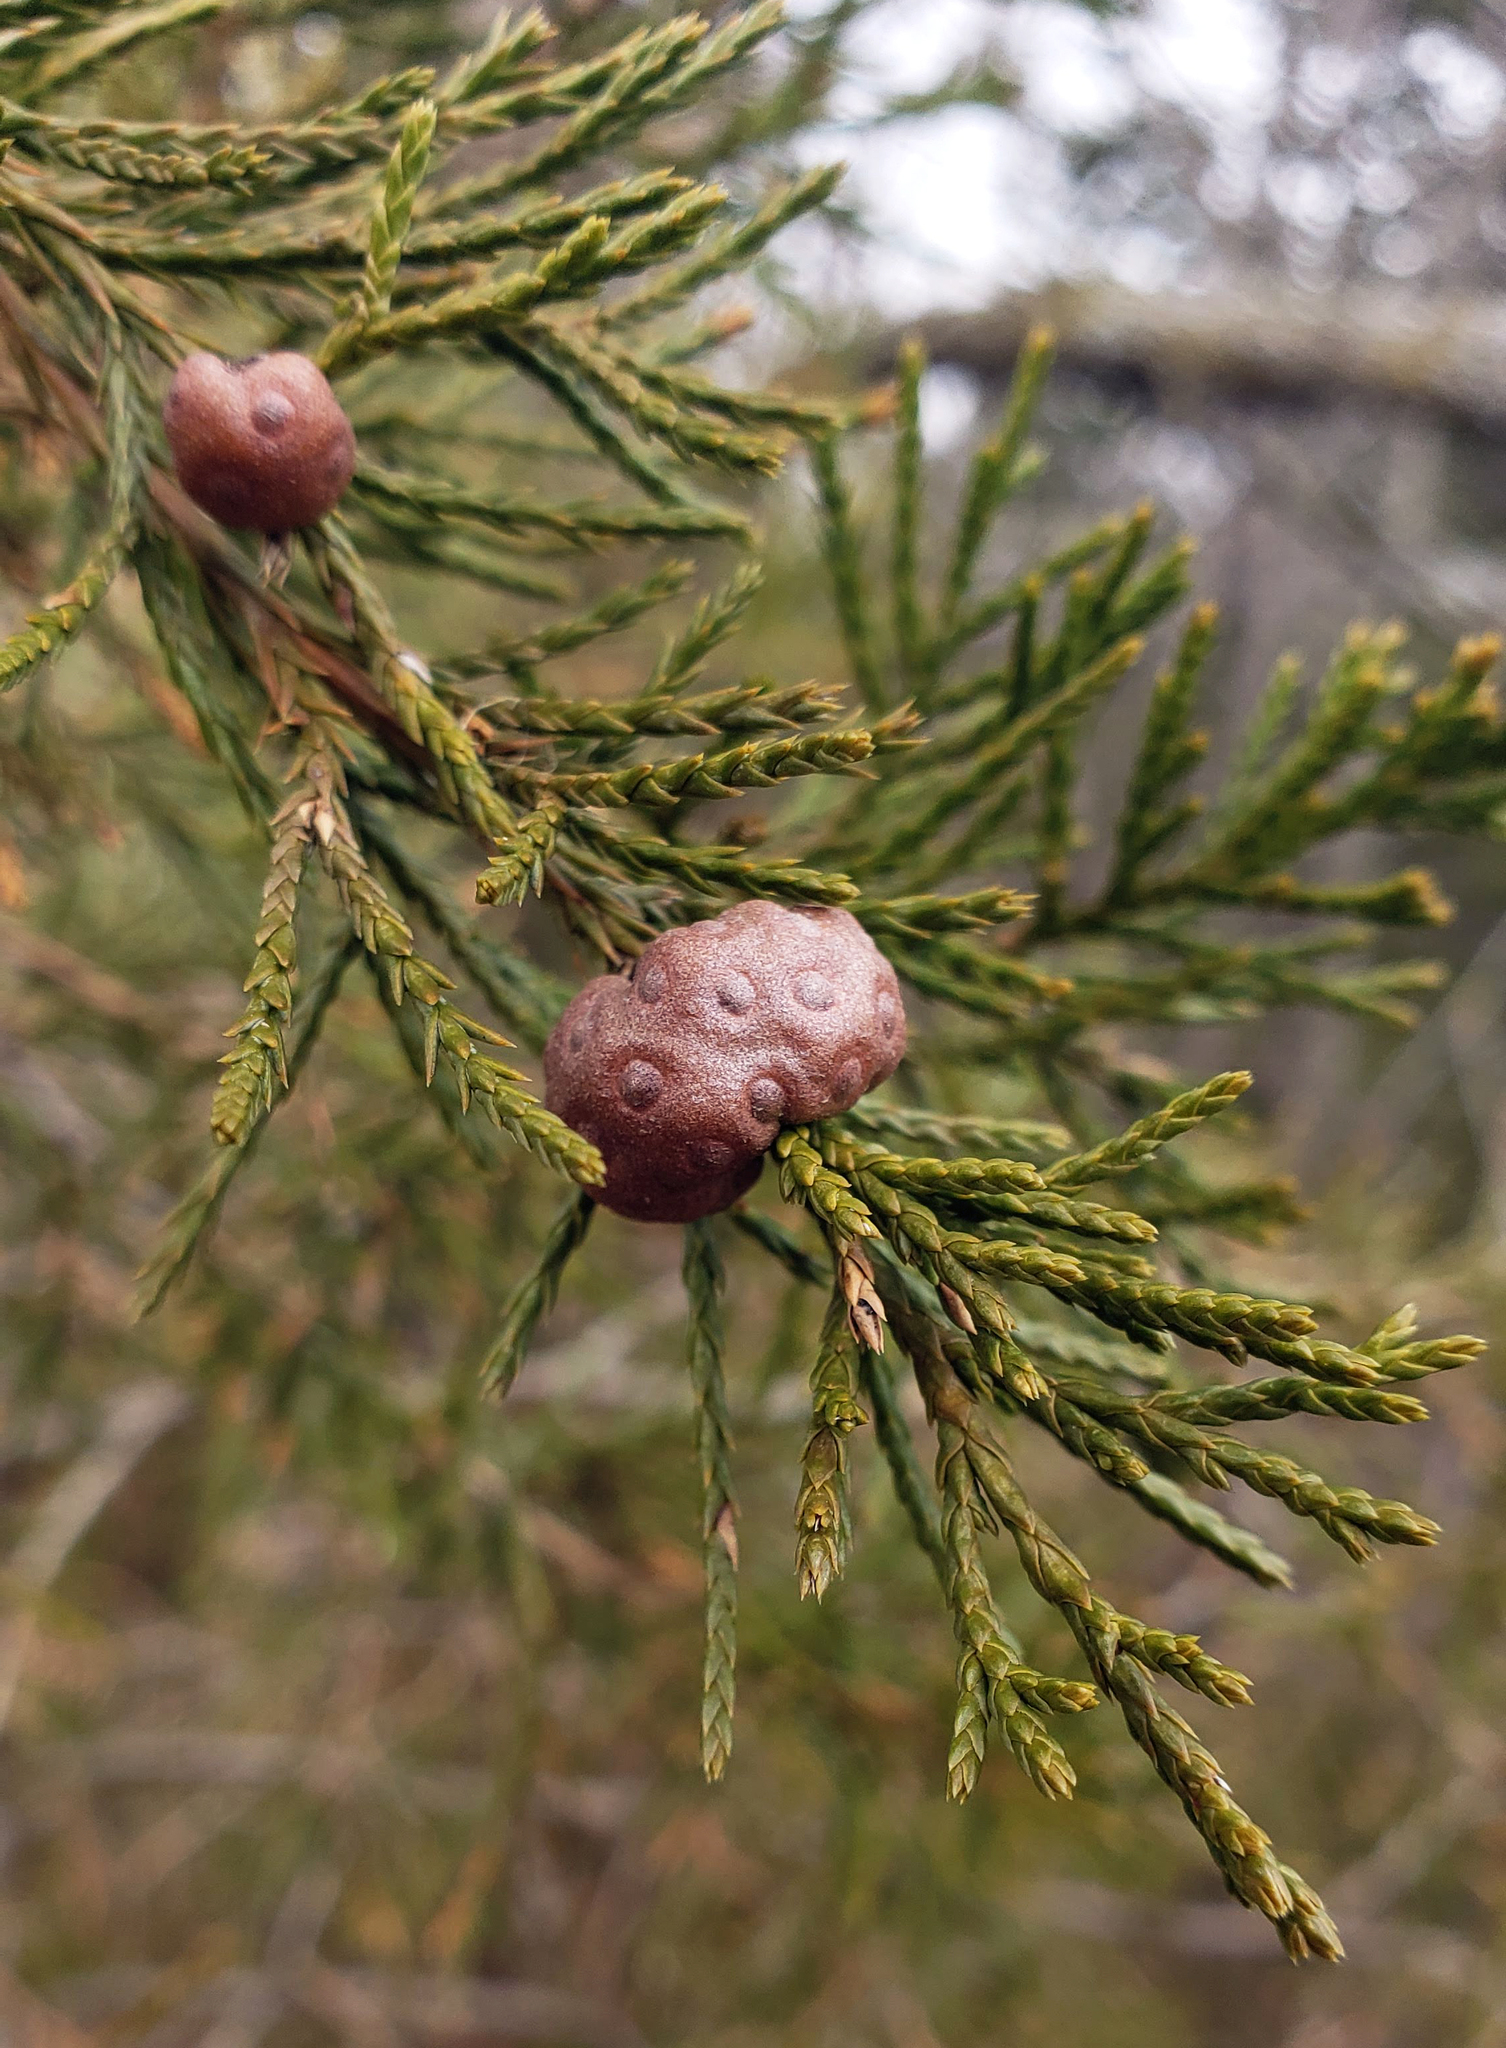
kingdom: Plantae
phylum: Tracheophyta
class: Pinopsida
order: Pinales
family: Cupressaceae
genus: Juniperus
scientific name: Juniperus virginiana
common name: Red juniper
